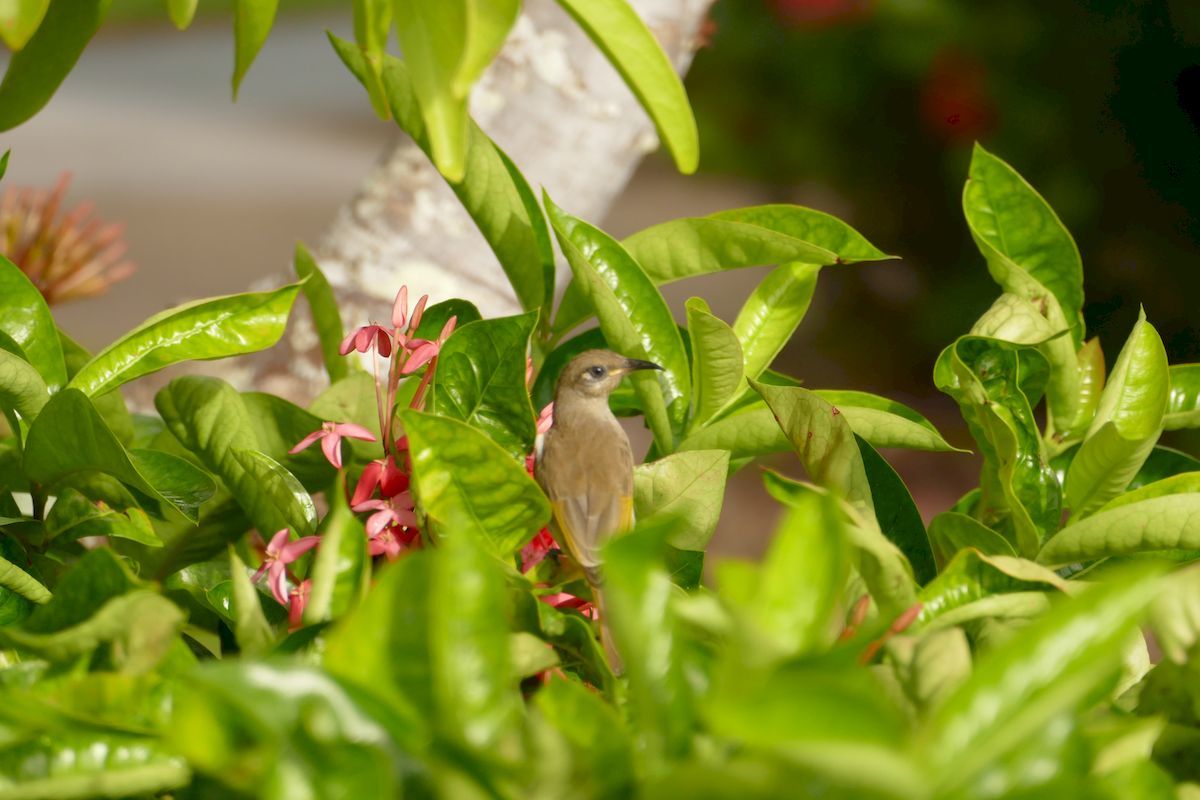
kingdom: Animalia
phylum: Chordata
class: Aves
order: Passeriformes
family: Meliphagidae
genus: Lichmera
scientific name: Lichmera indistincta
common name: Brown honeyeater
